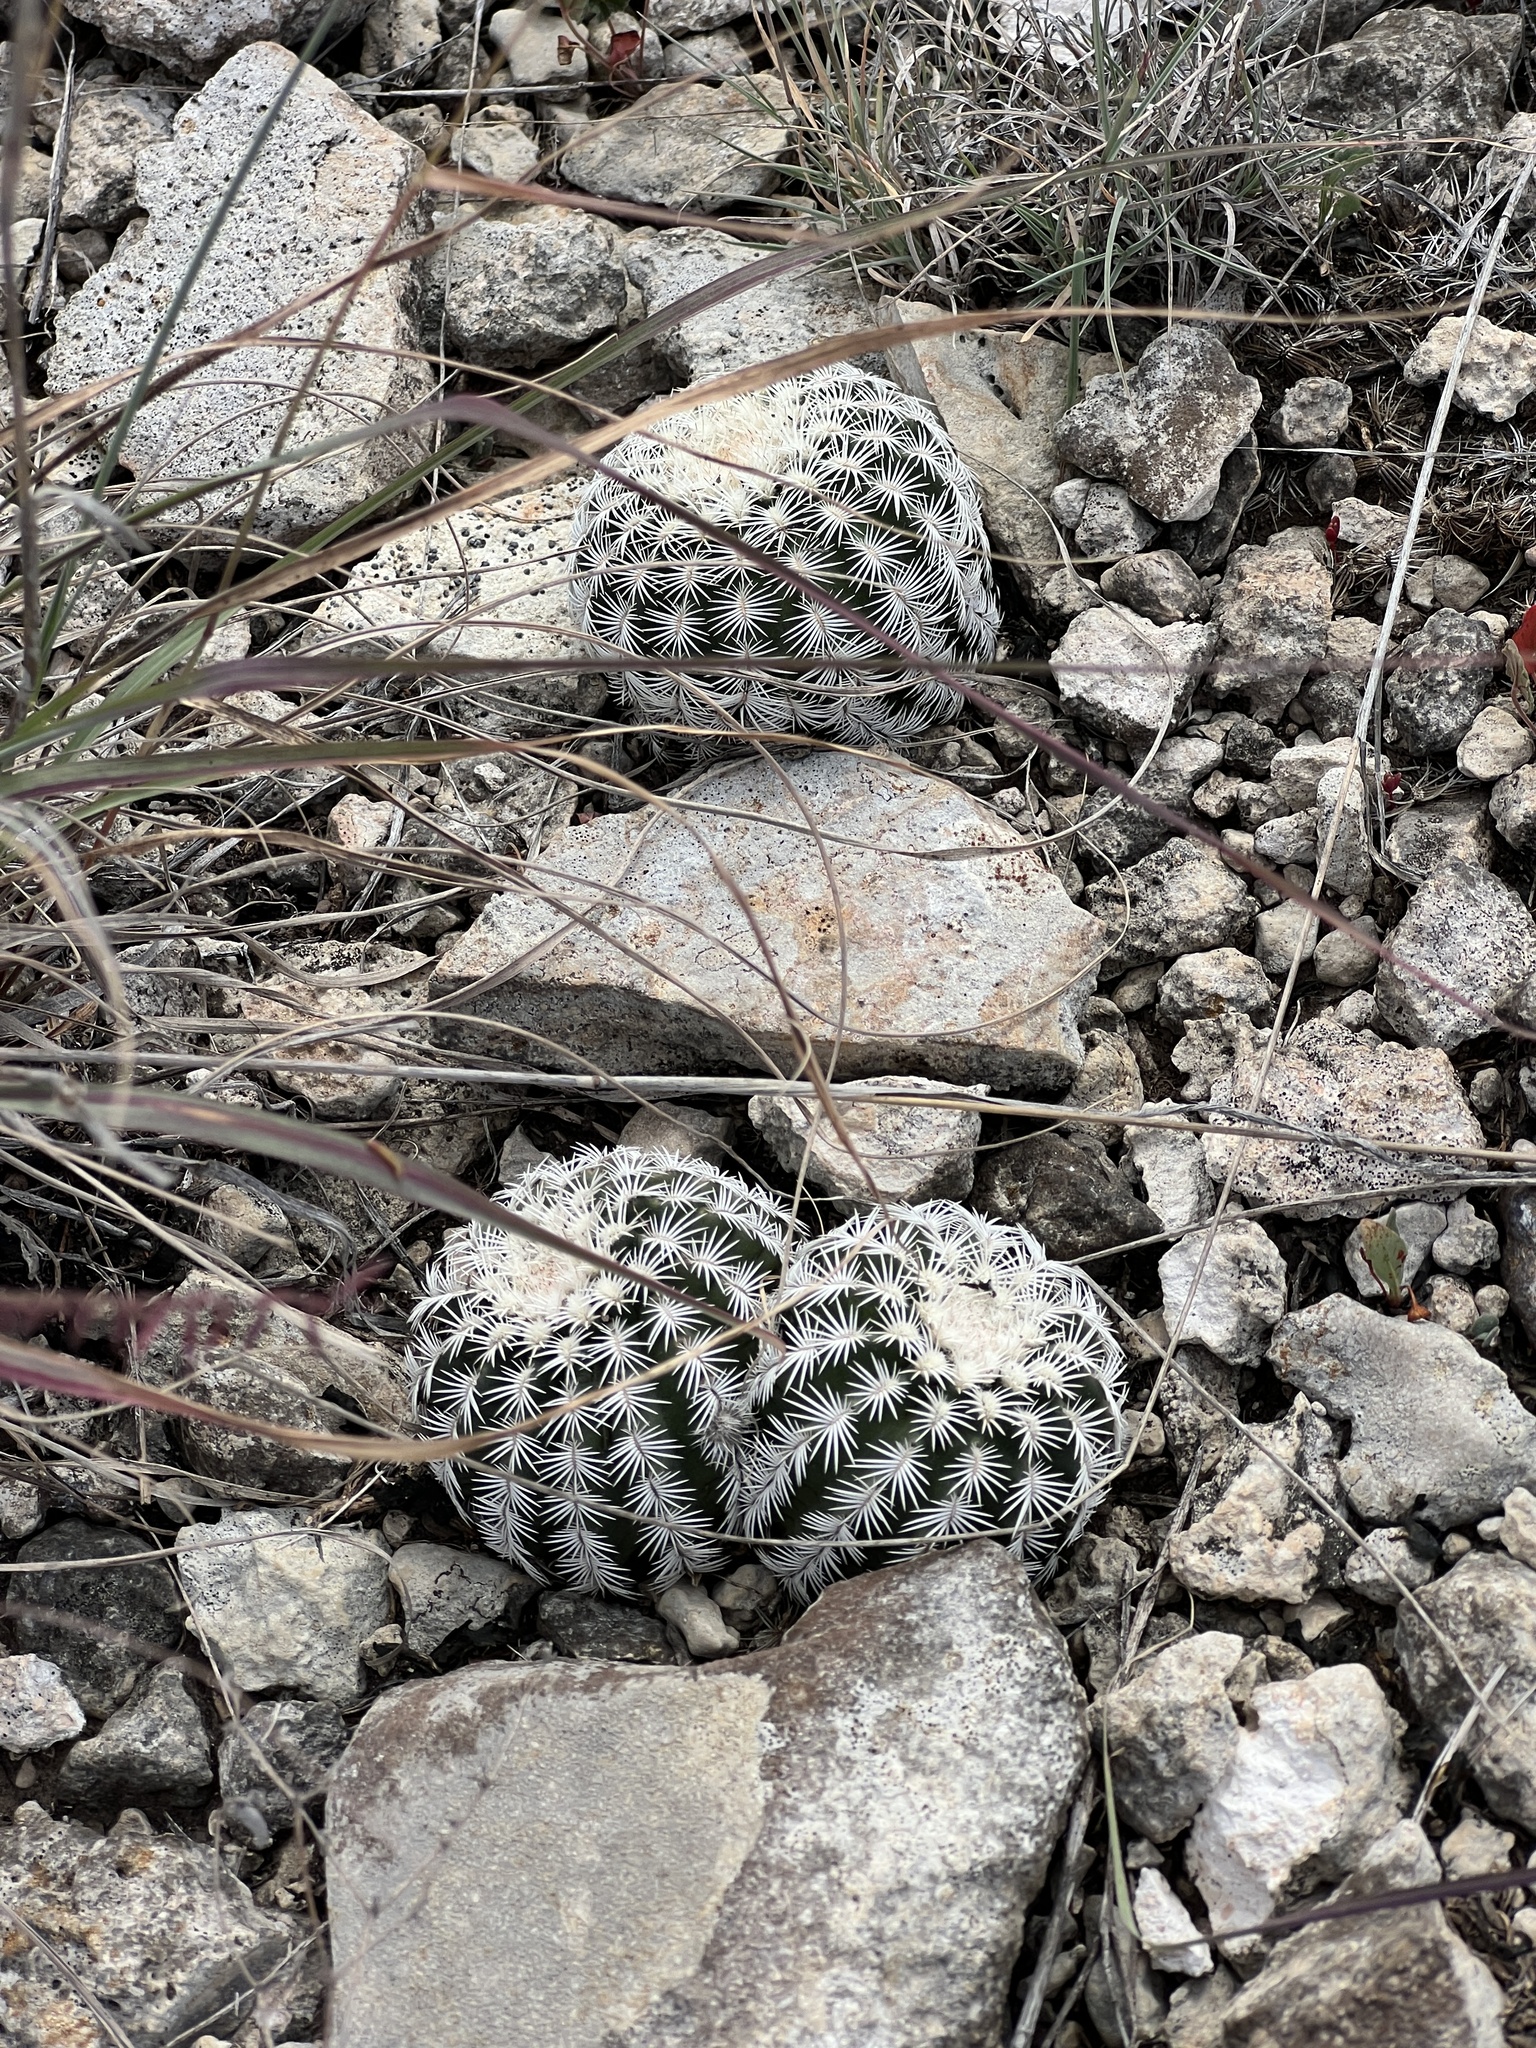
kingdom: Plantae
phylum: Tracheophyta
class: Magnoliopsida
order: Caryophyllales
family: Cactaceae
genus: Echinocereus
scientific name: Echinocereus reichenbachii
